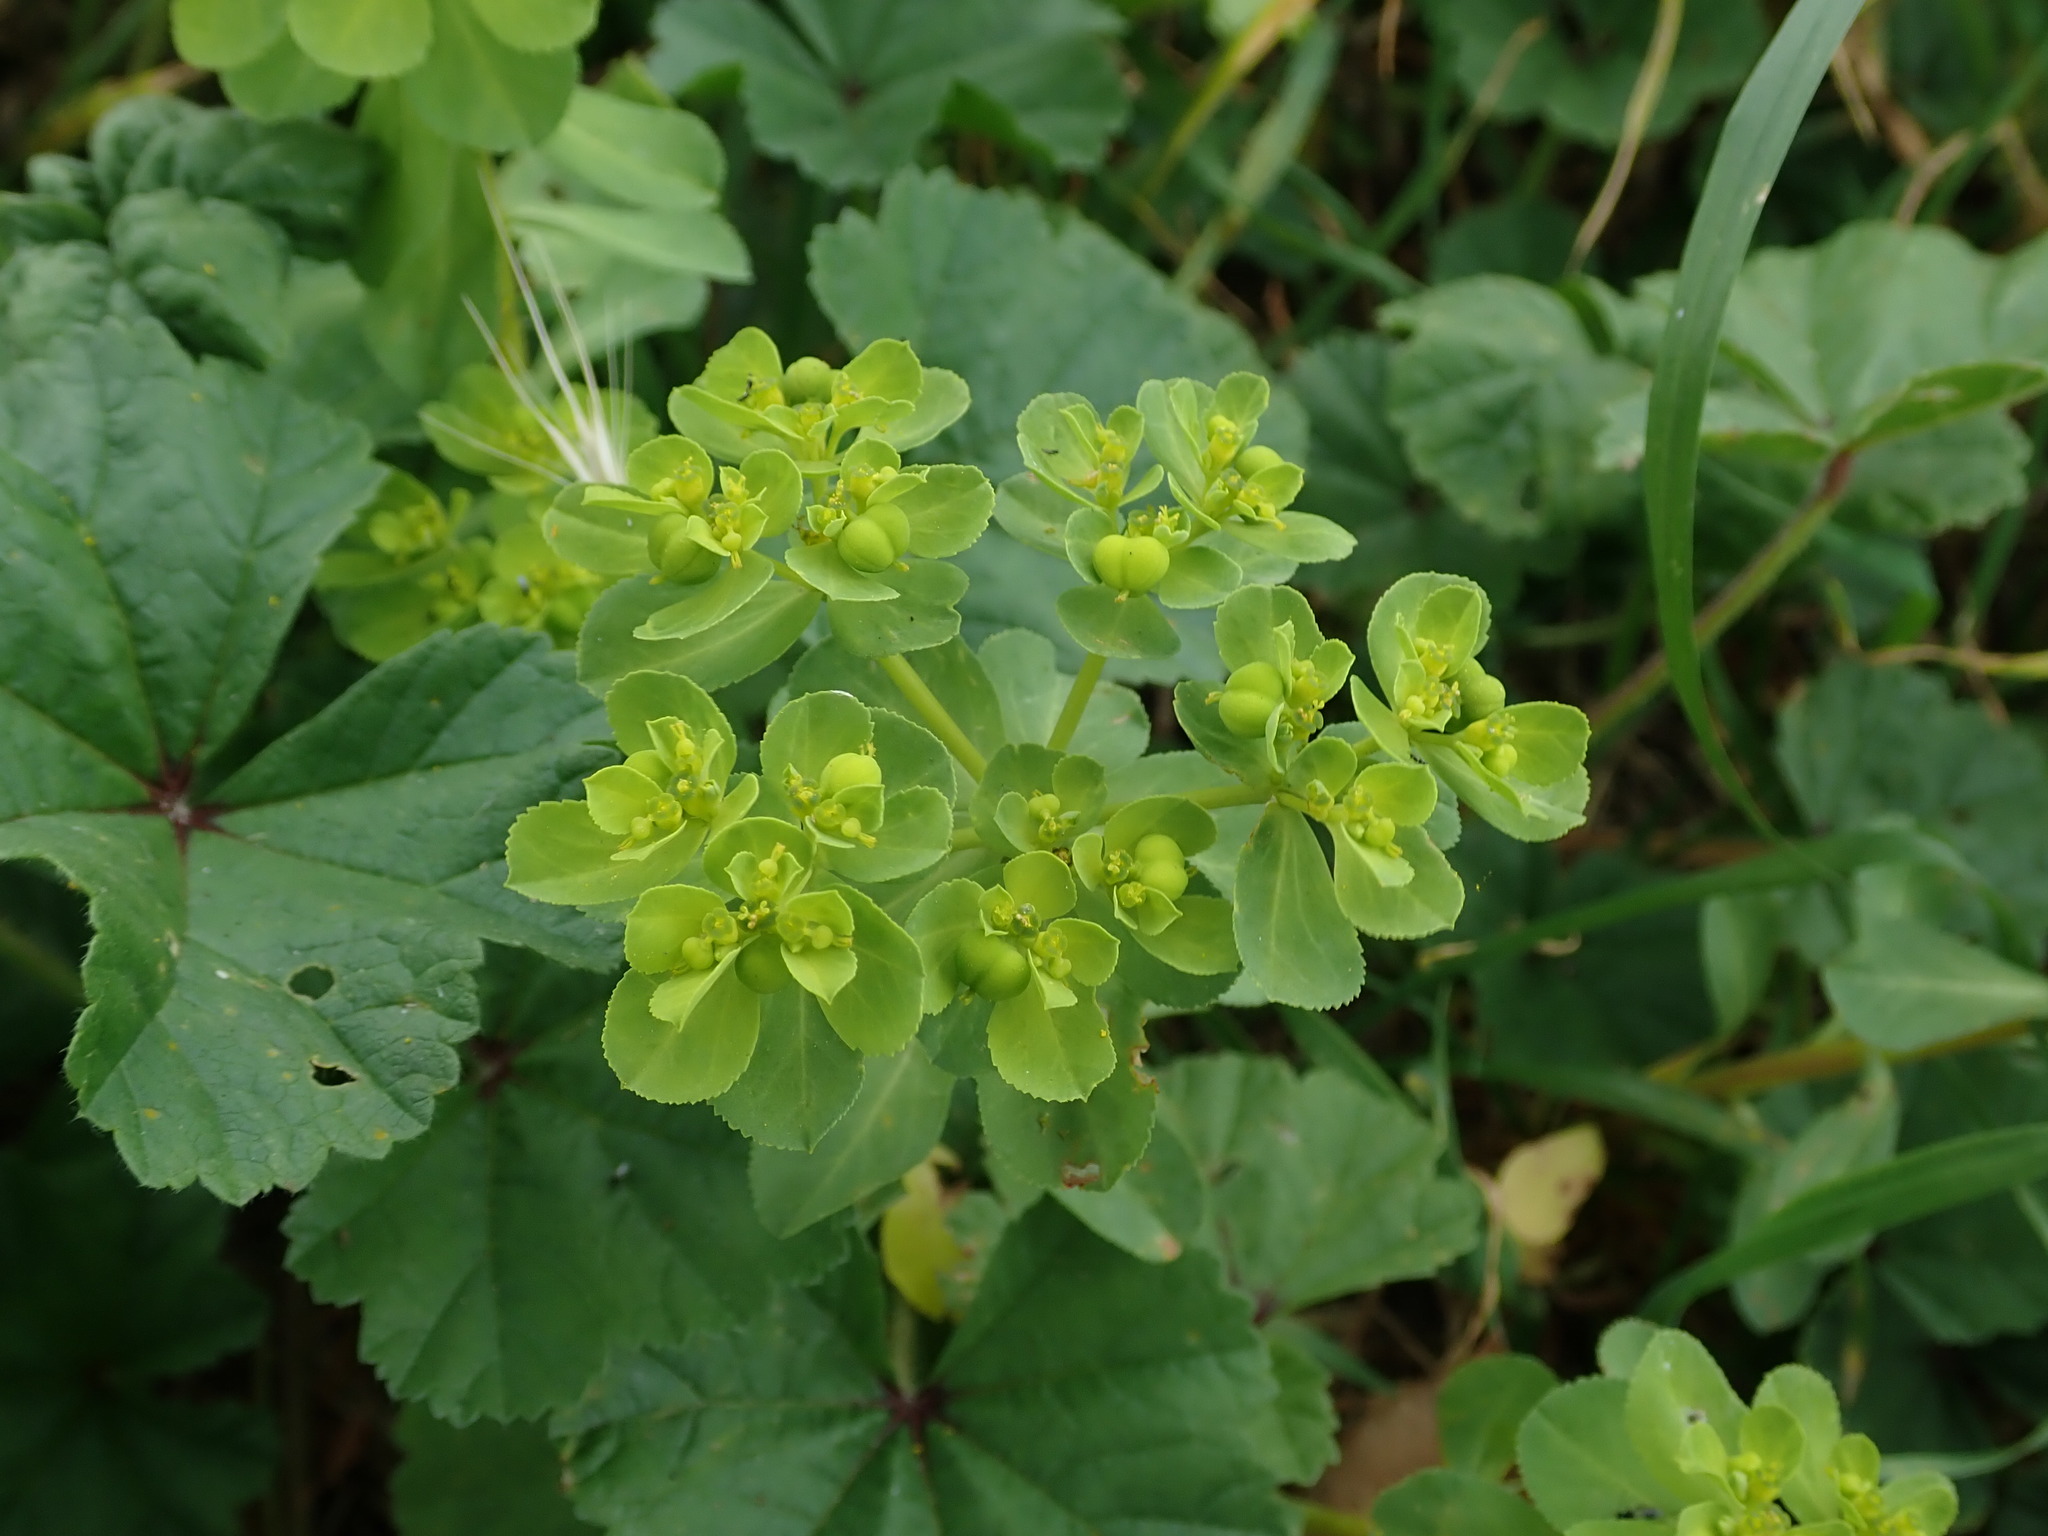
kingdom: Plantae
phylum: Tracheophyta
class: Magnoliopsida
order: Malpighiales
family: Euphorbiaceae
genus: Euphorbia
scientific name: Euphorbia helioscopia
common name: Sun spurge
